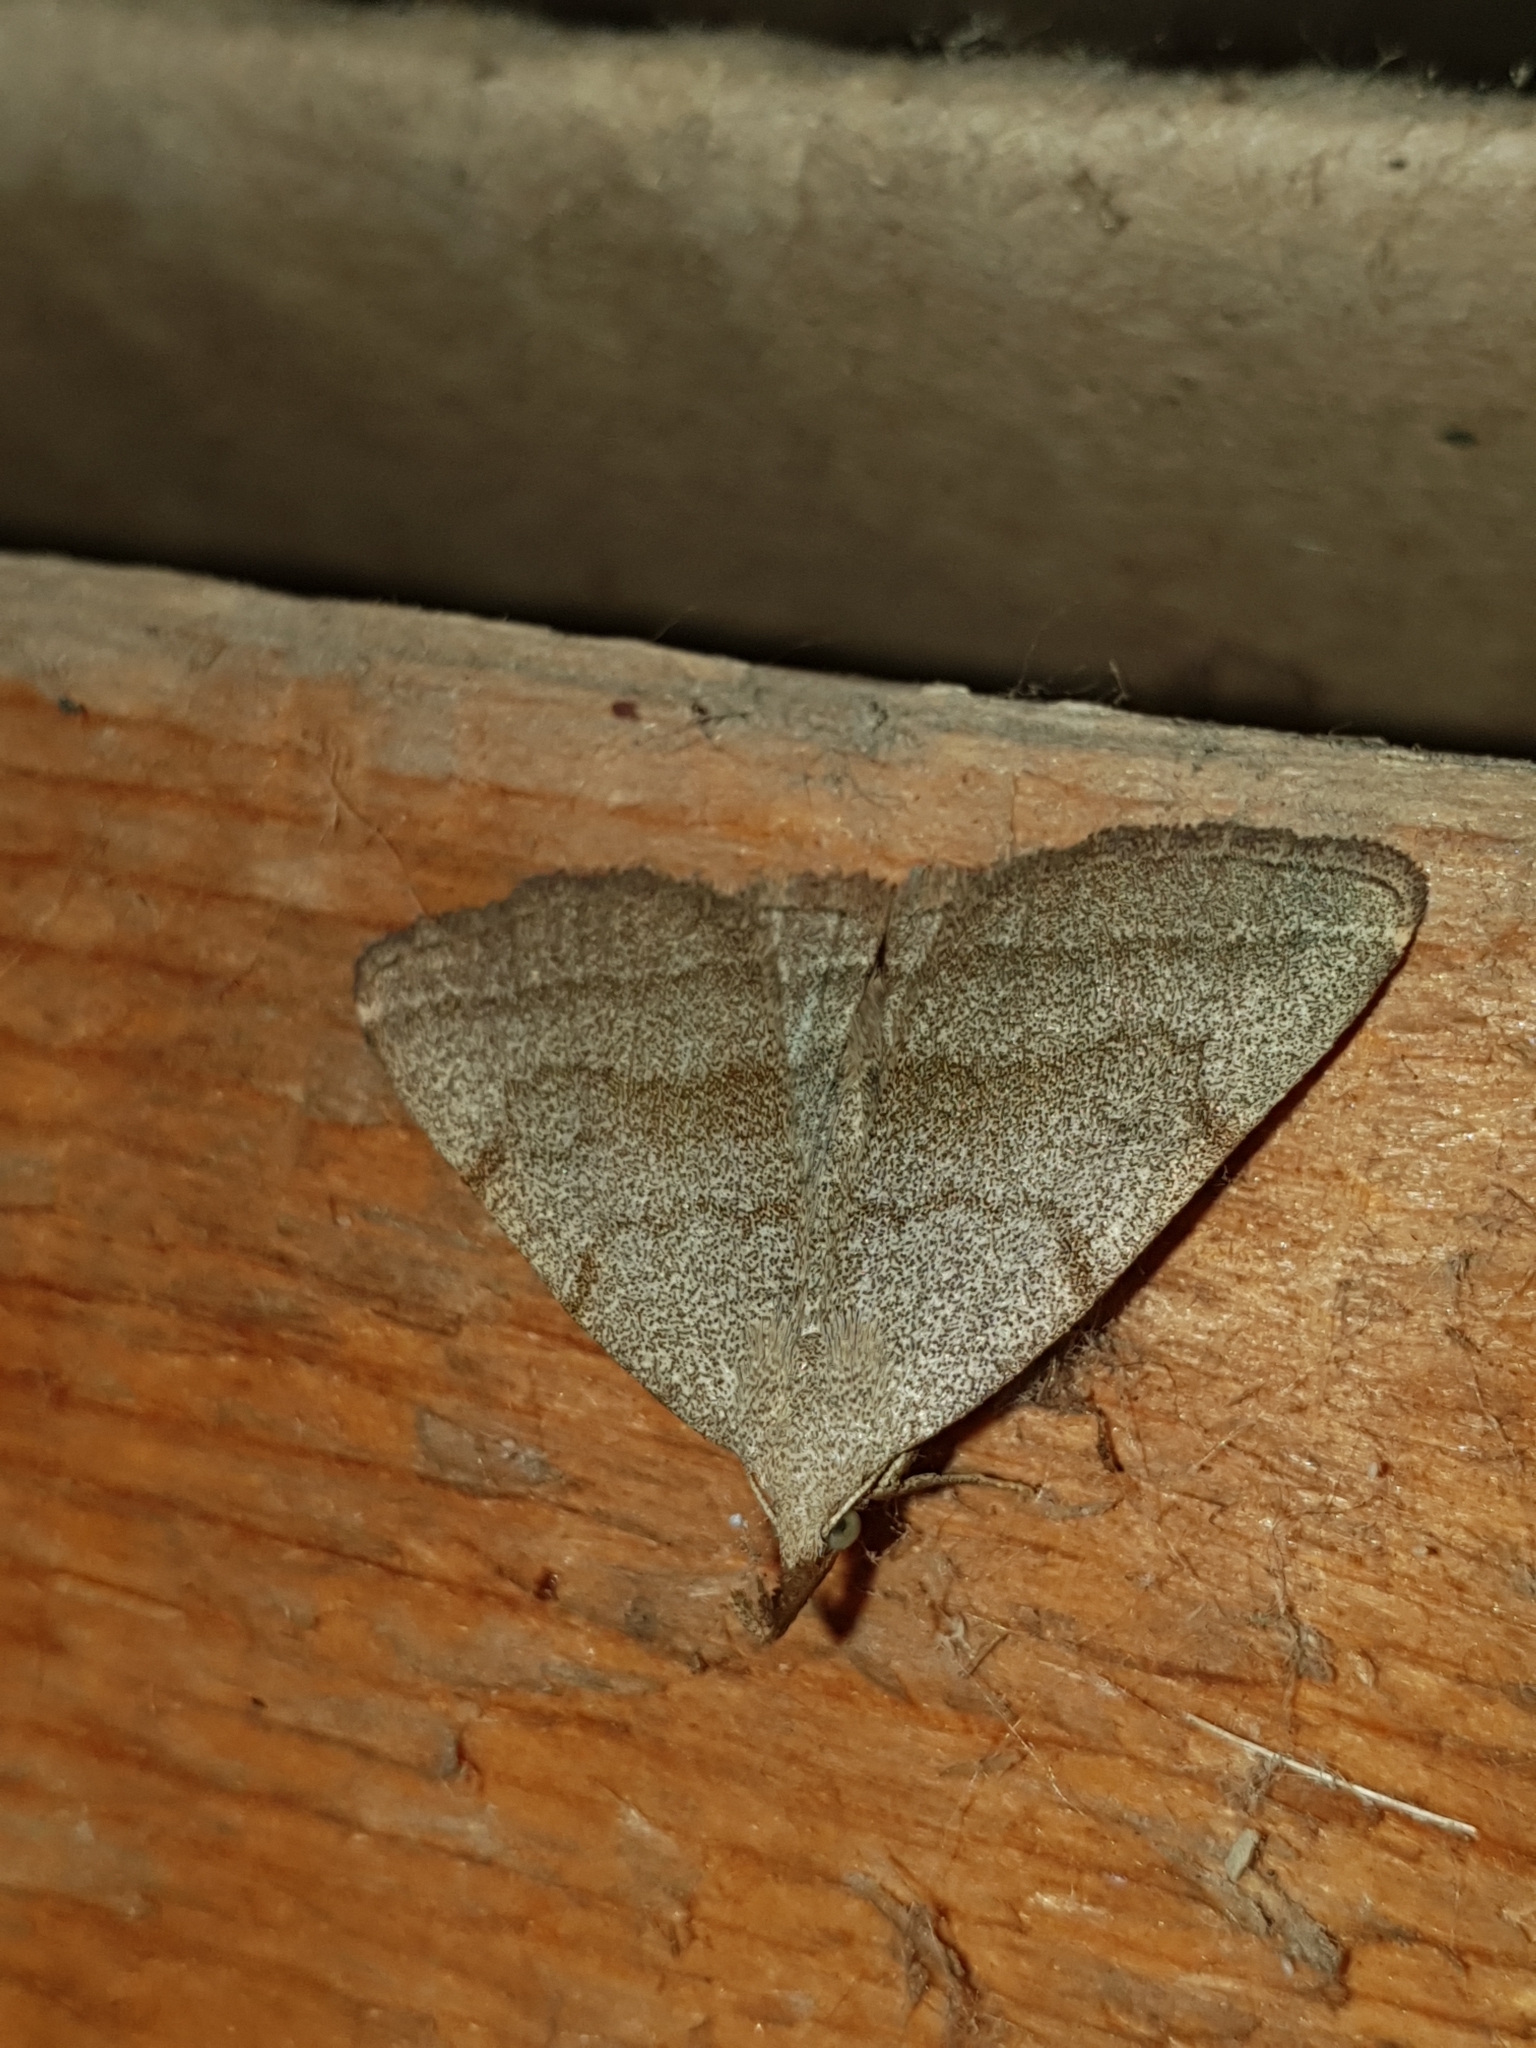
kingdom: Animalia
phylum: Arthropoda
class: Insecta
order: Lepidoptera
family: Erebidae
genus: Pechipogo
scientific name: Pechipogo strigilata
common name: Common fan-foot
